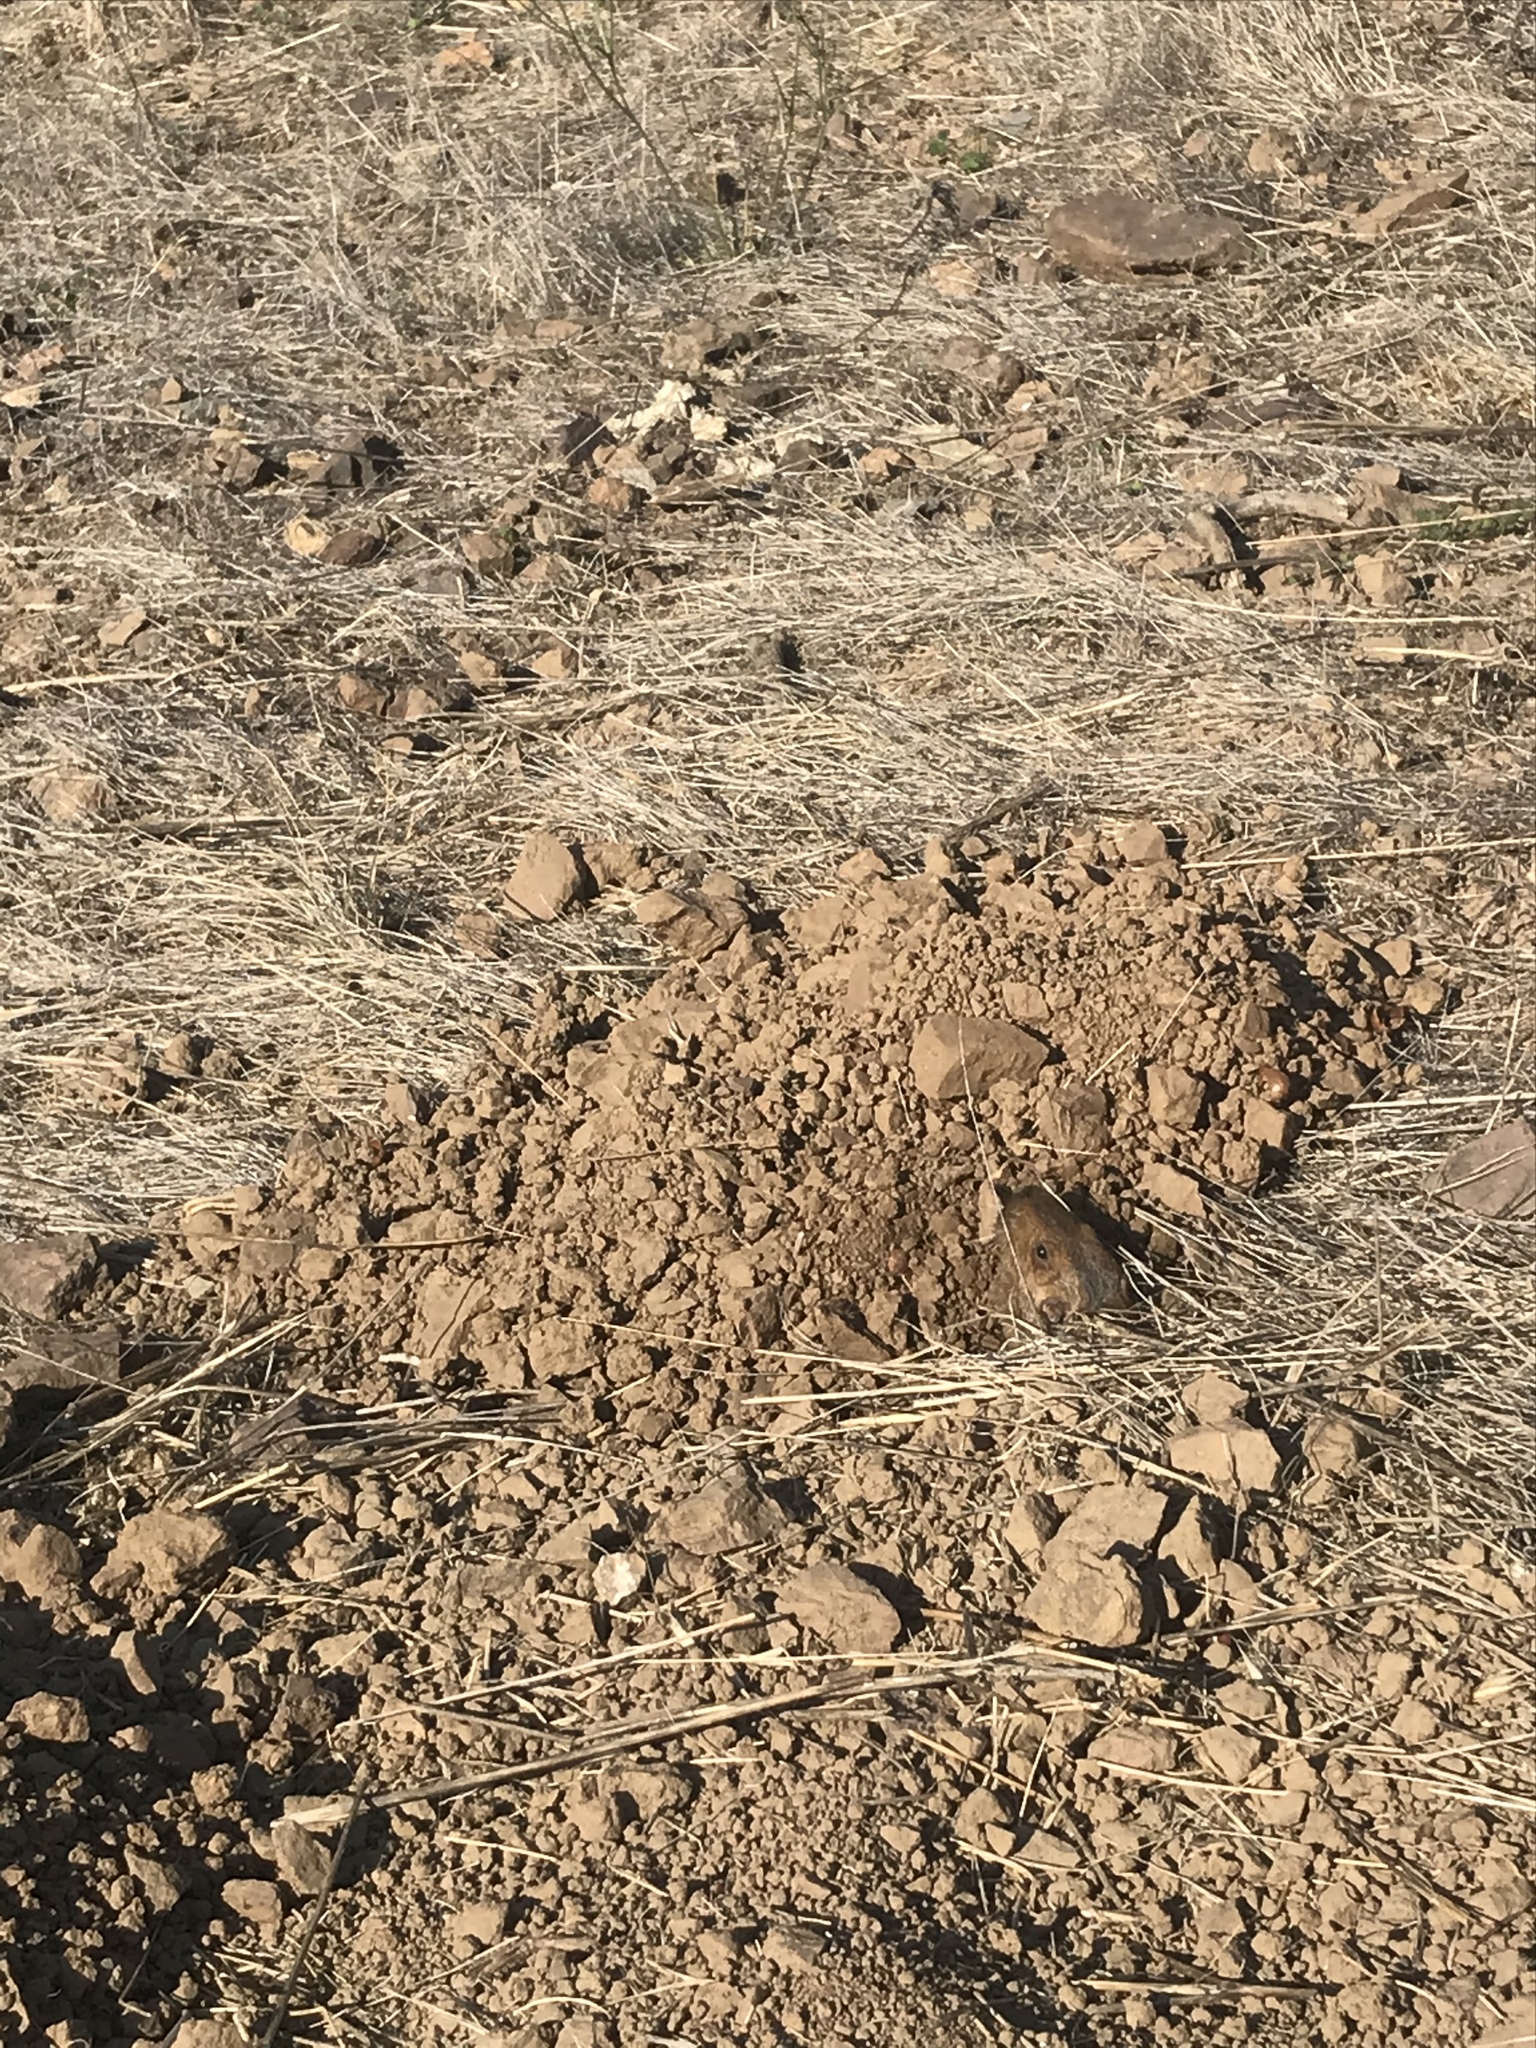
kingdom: Animalia
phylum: Chordata
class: Mammalia
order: Rodentia
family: Geomyidae
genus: Thomomys
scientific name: Thomomys bottae
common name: Botta's pocket gopher
